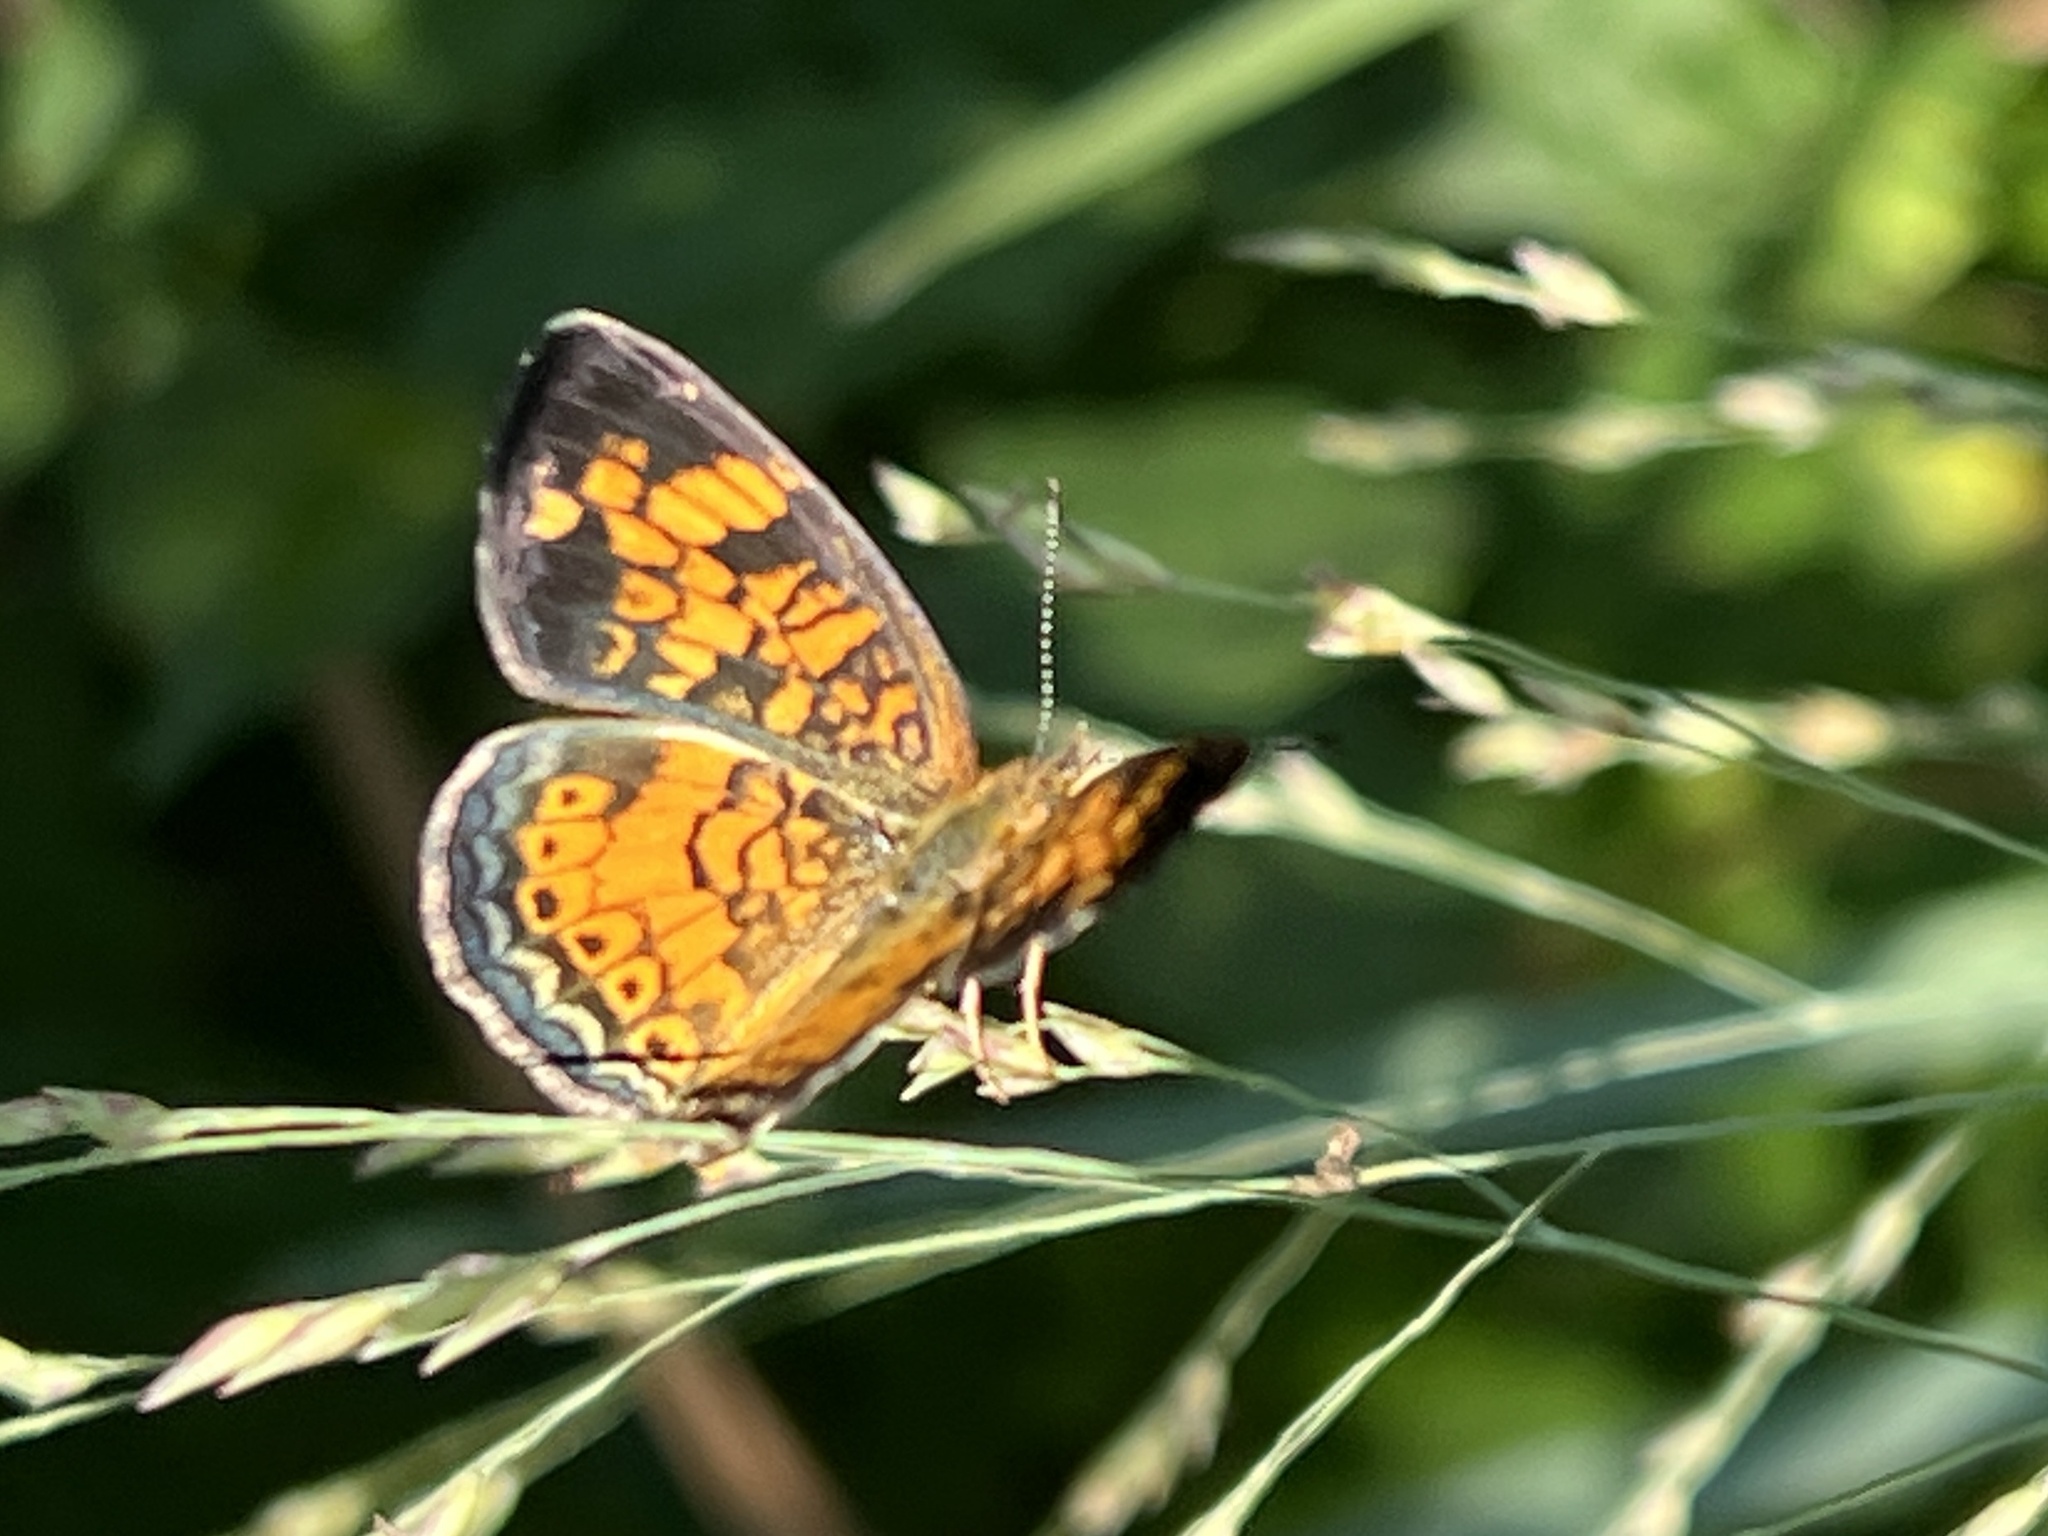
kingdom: Animalia
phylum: Arthropoda
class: Insecta
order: Lepidoptera
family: Nymphalidae
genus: Phyciodes
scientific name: Phyciodes tharos
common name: Pearl crescent
